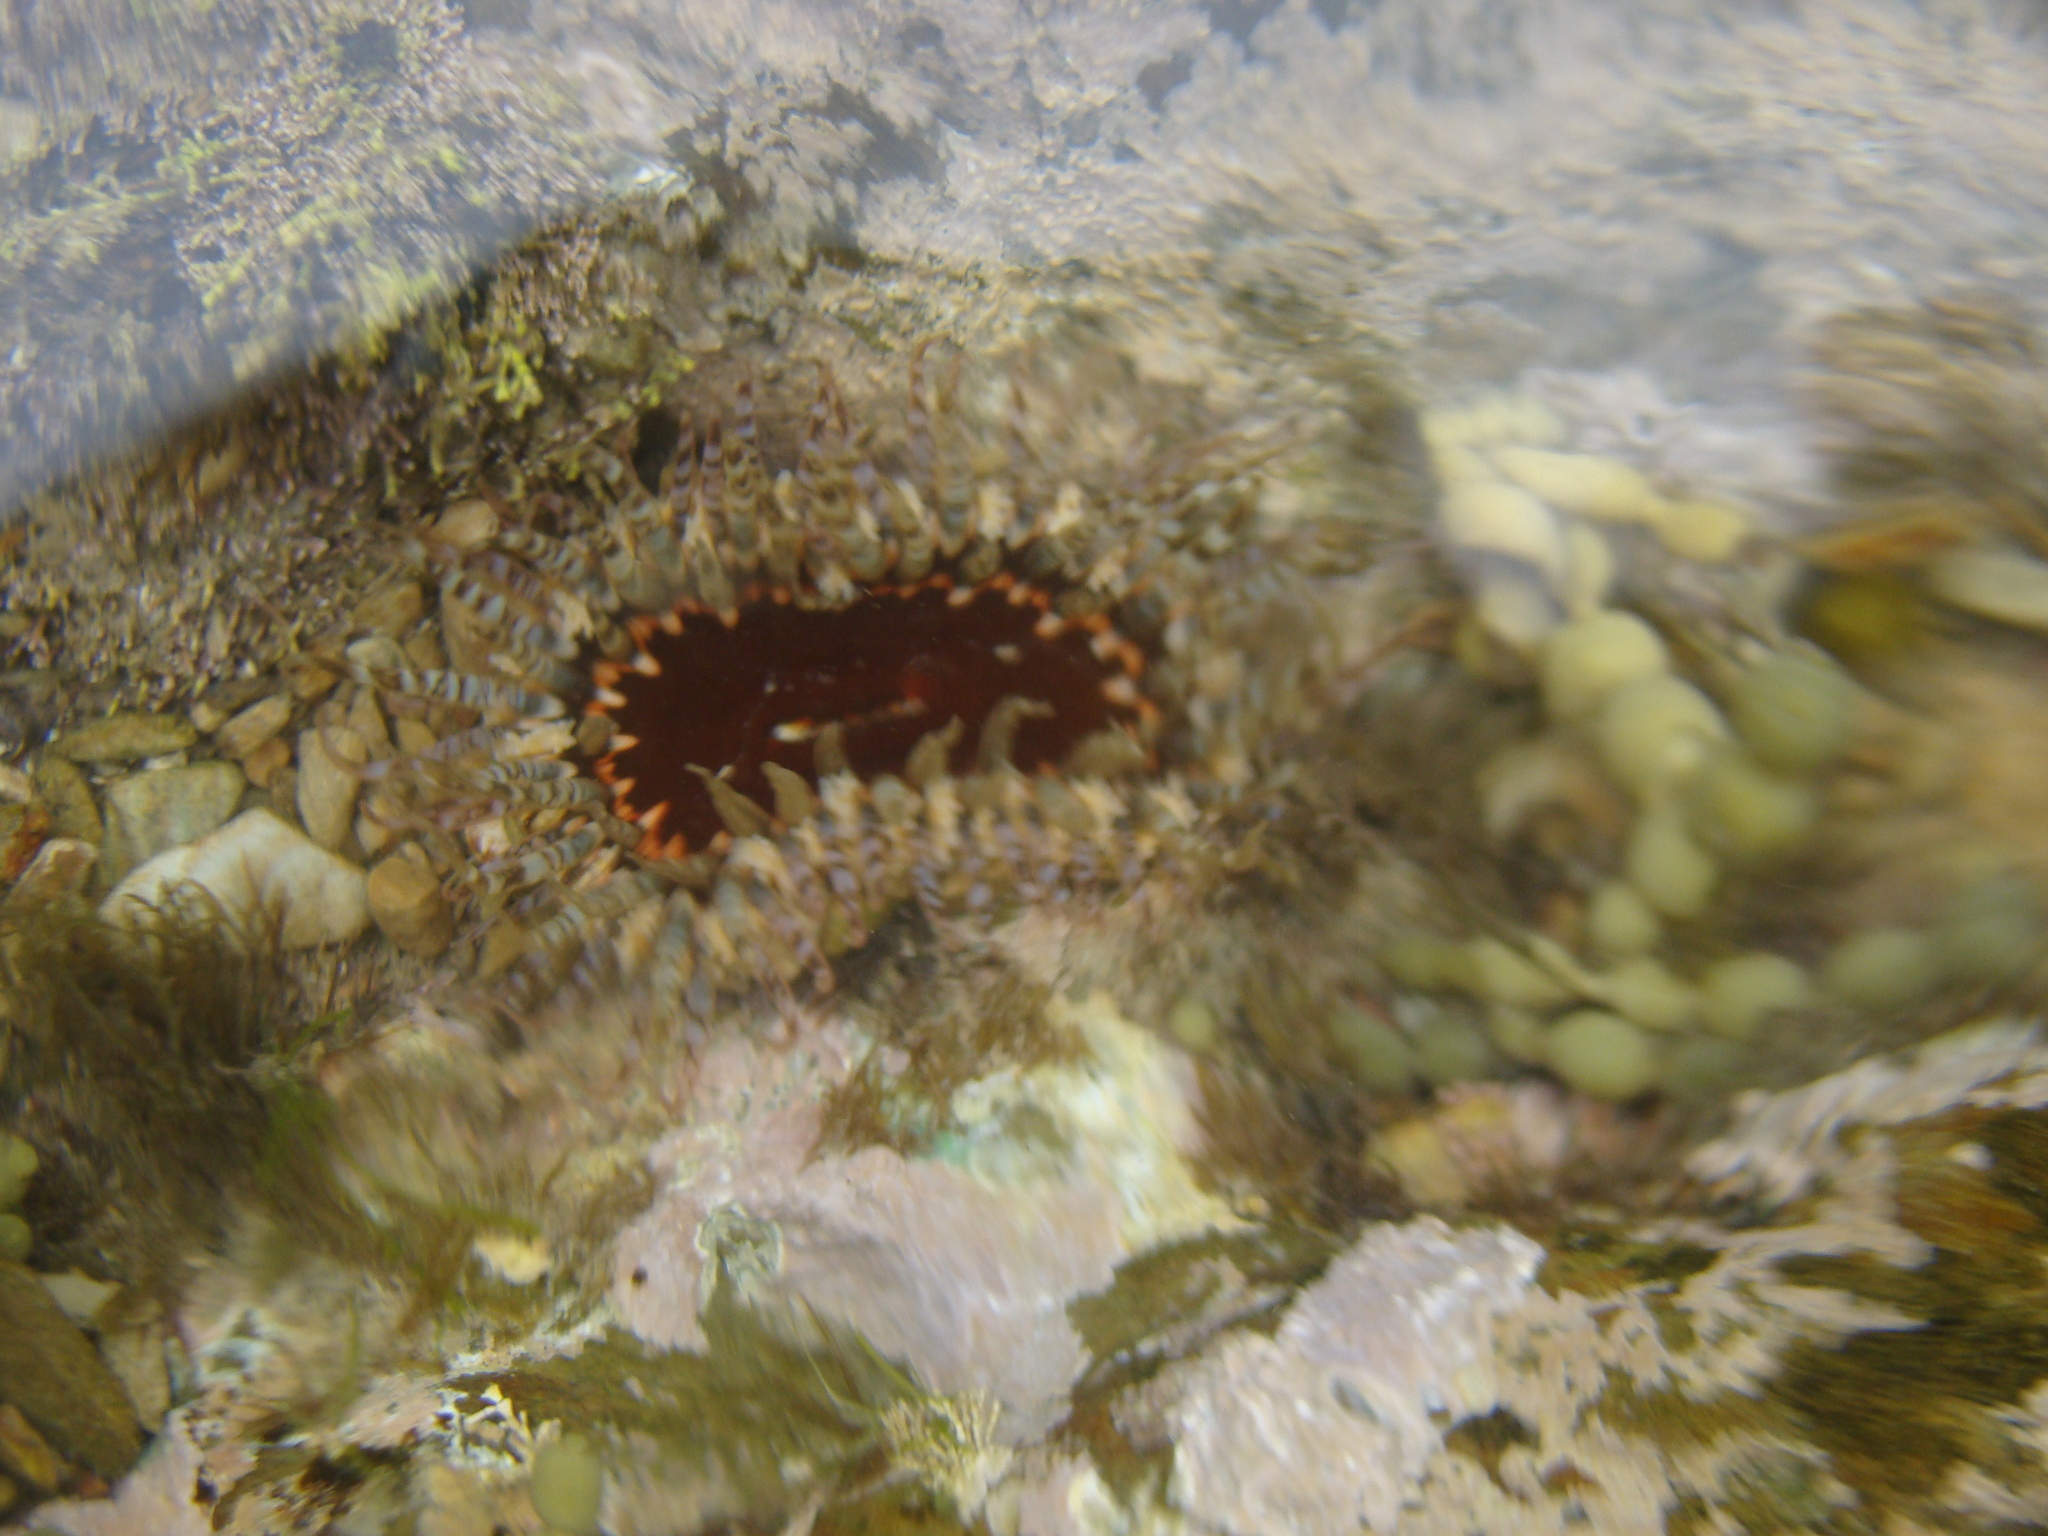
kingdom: Animalia
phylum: Cnidaria
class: Anthozoa
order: Actiniaria
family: Actiniidae
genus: Oulactis
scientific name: Oulactis muscosa
